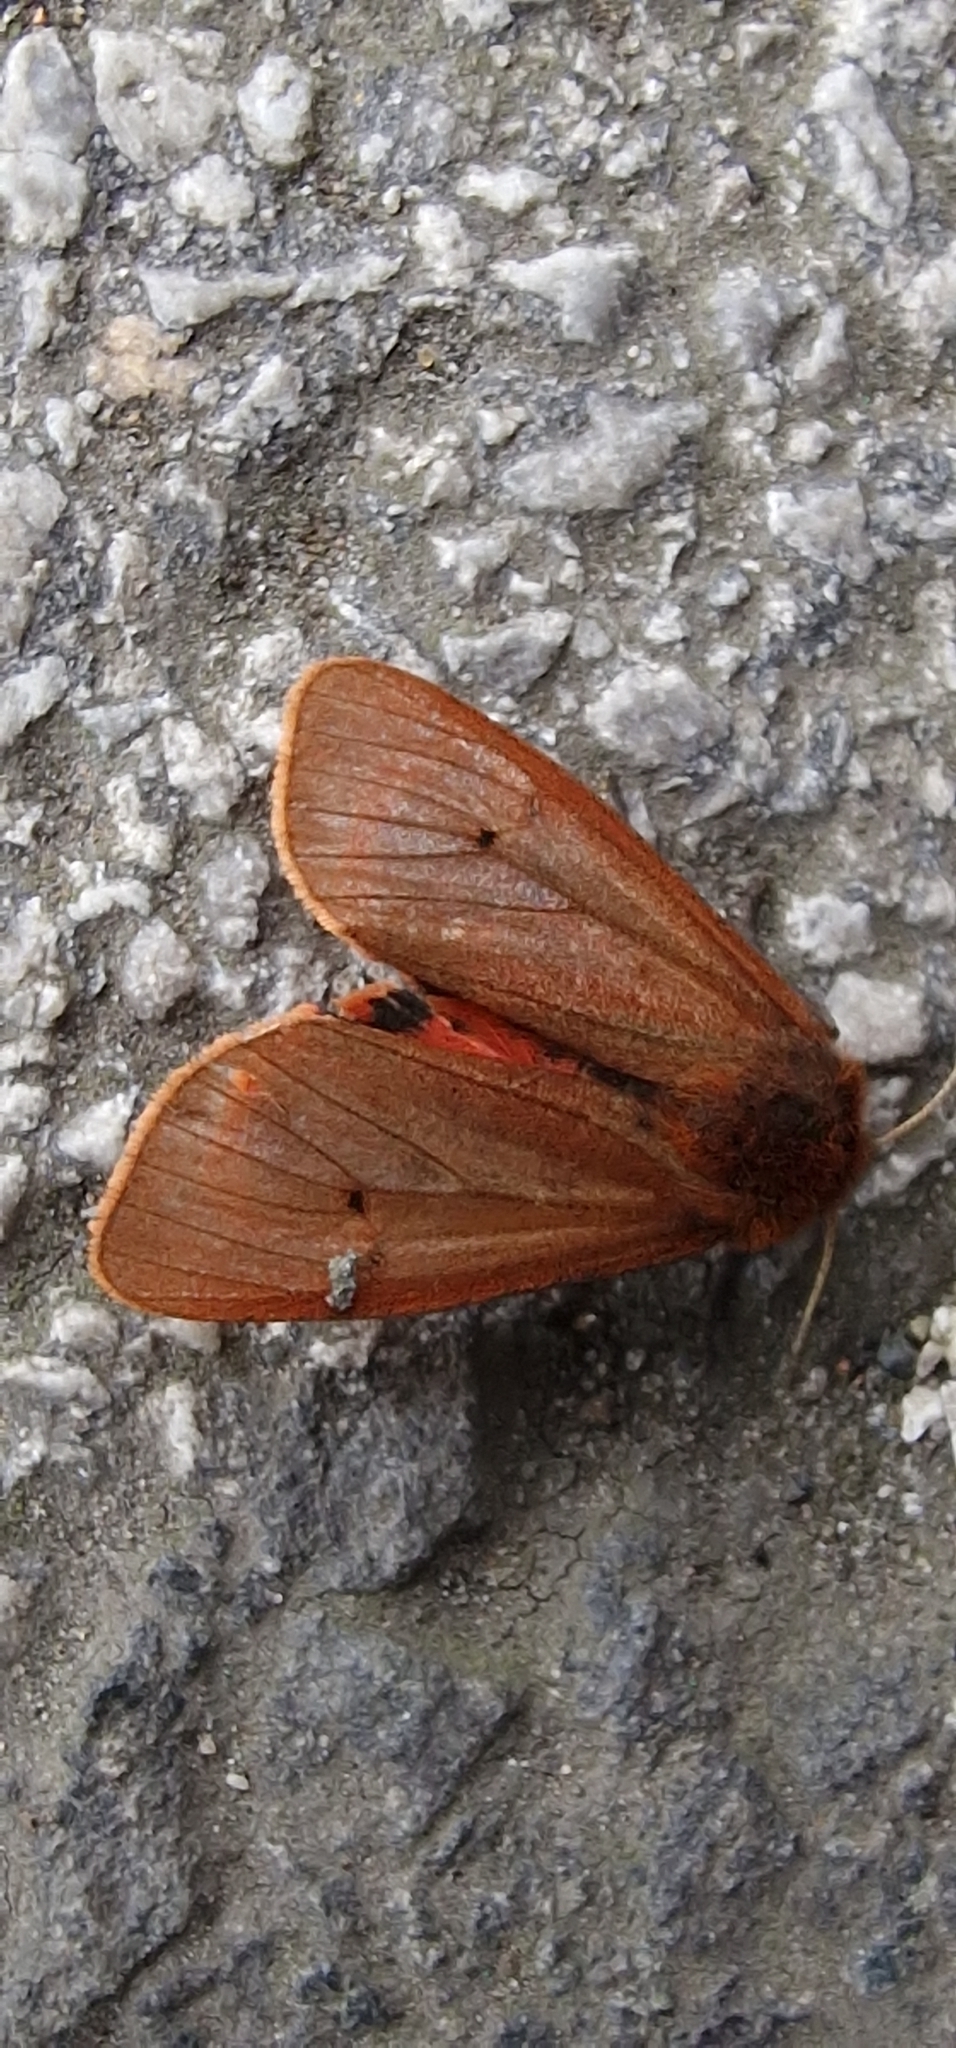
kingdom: Animalia
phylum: Arthropoda
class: Insecta
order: Lepidoptera
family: Erebidae
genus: Phragmatobia
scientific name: Phragmatobia fuliginosa
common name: Ruby tiger
